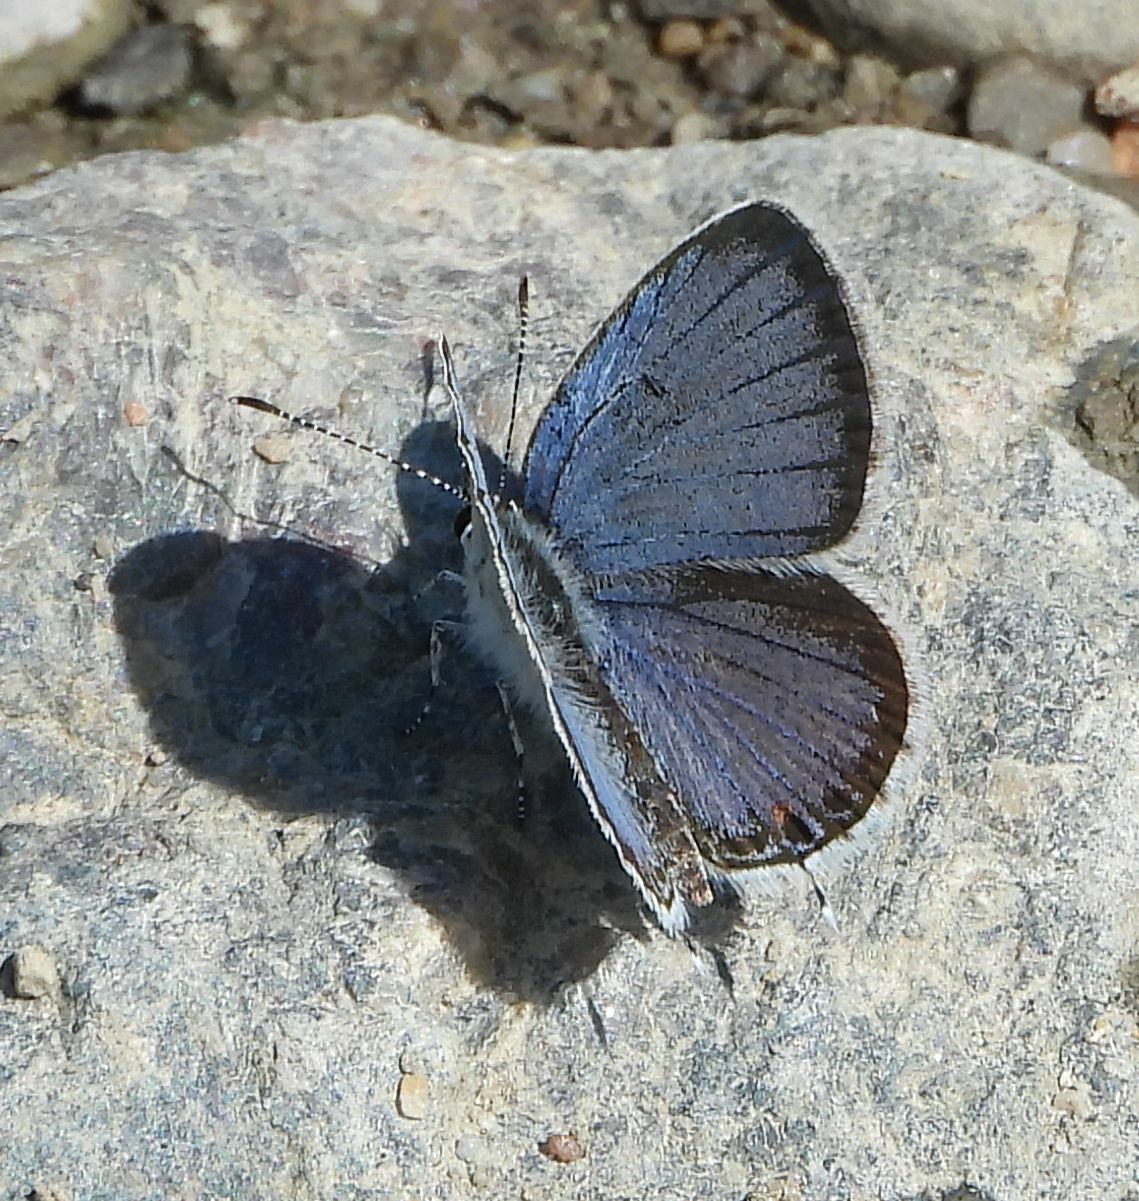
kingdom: Animalia
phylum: Arthropoda
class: Insecta
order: Lepidoptera
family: Lycaenidae
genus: Elkalyce
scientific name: Elkalyce comyntas
